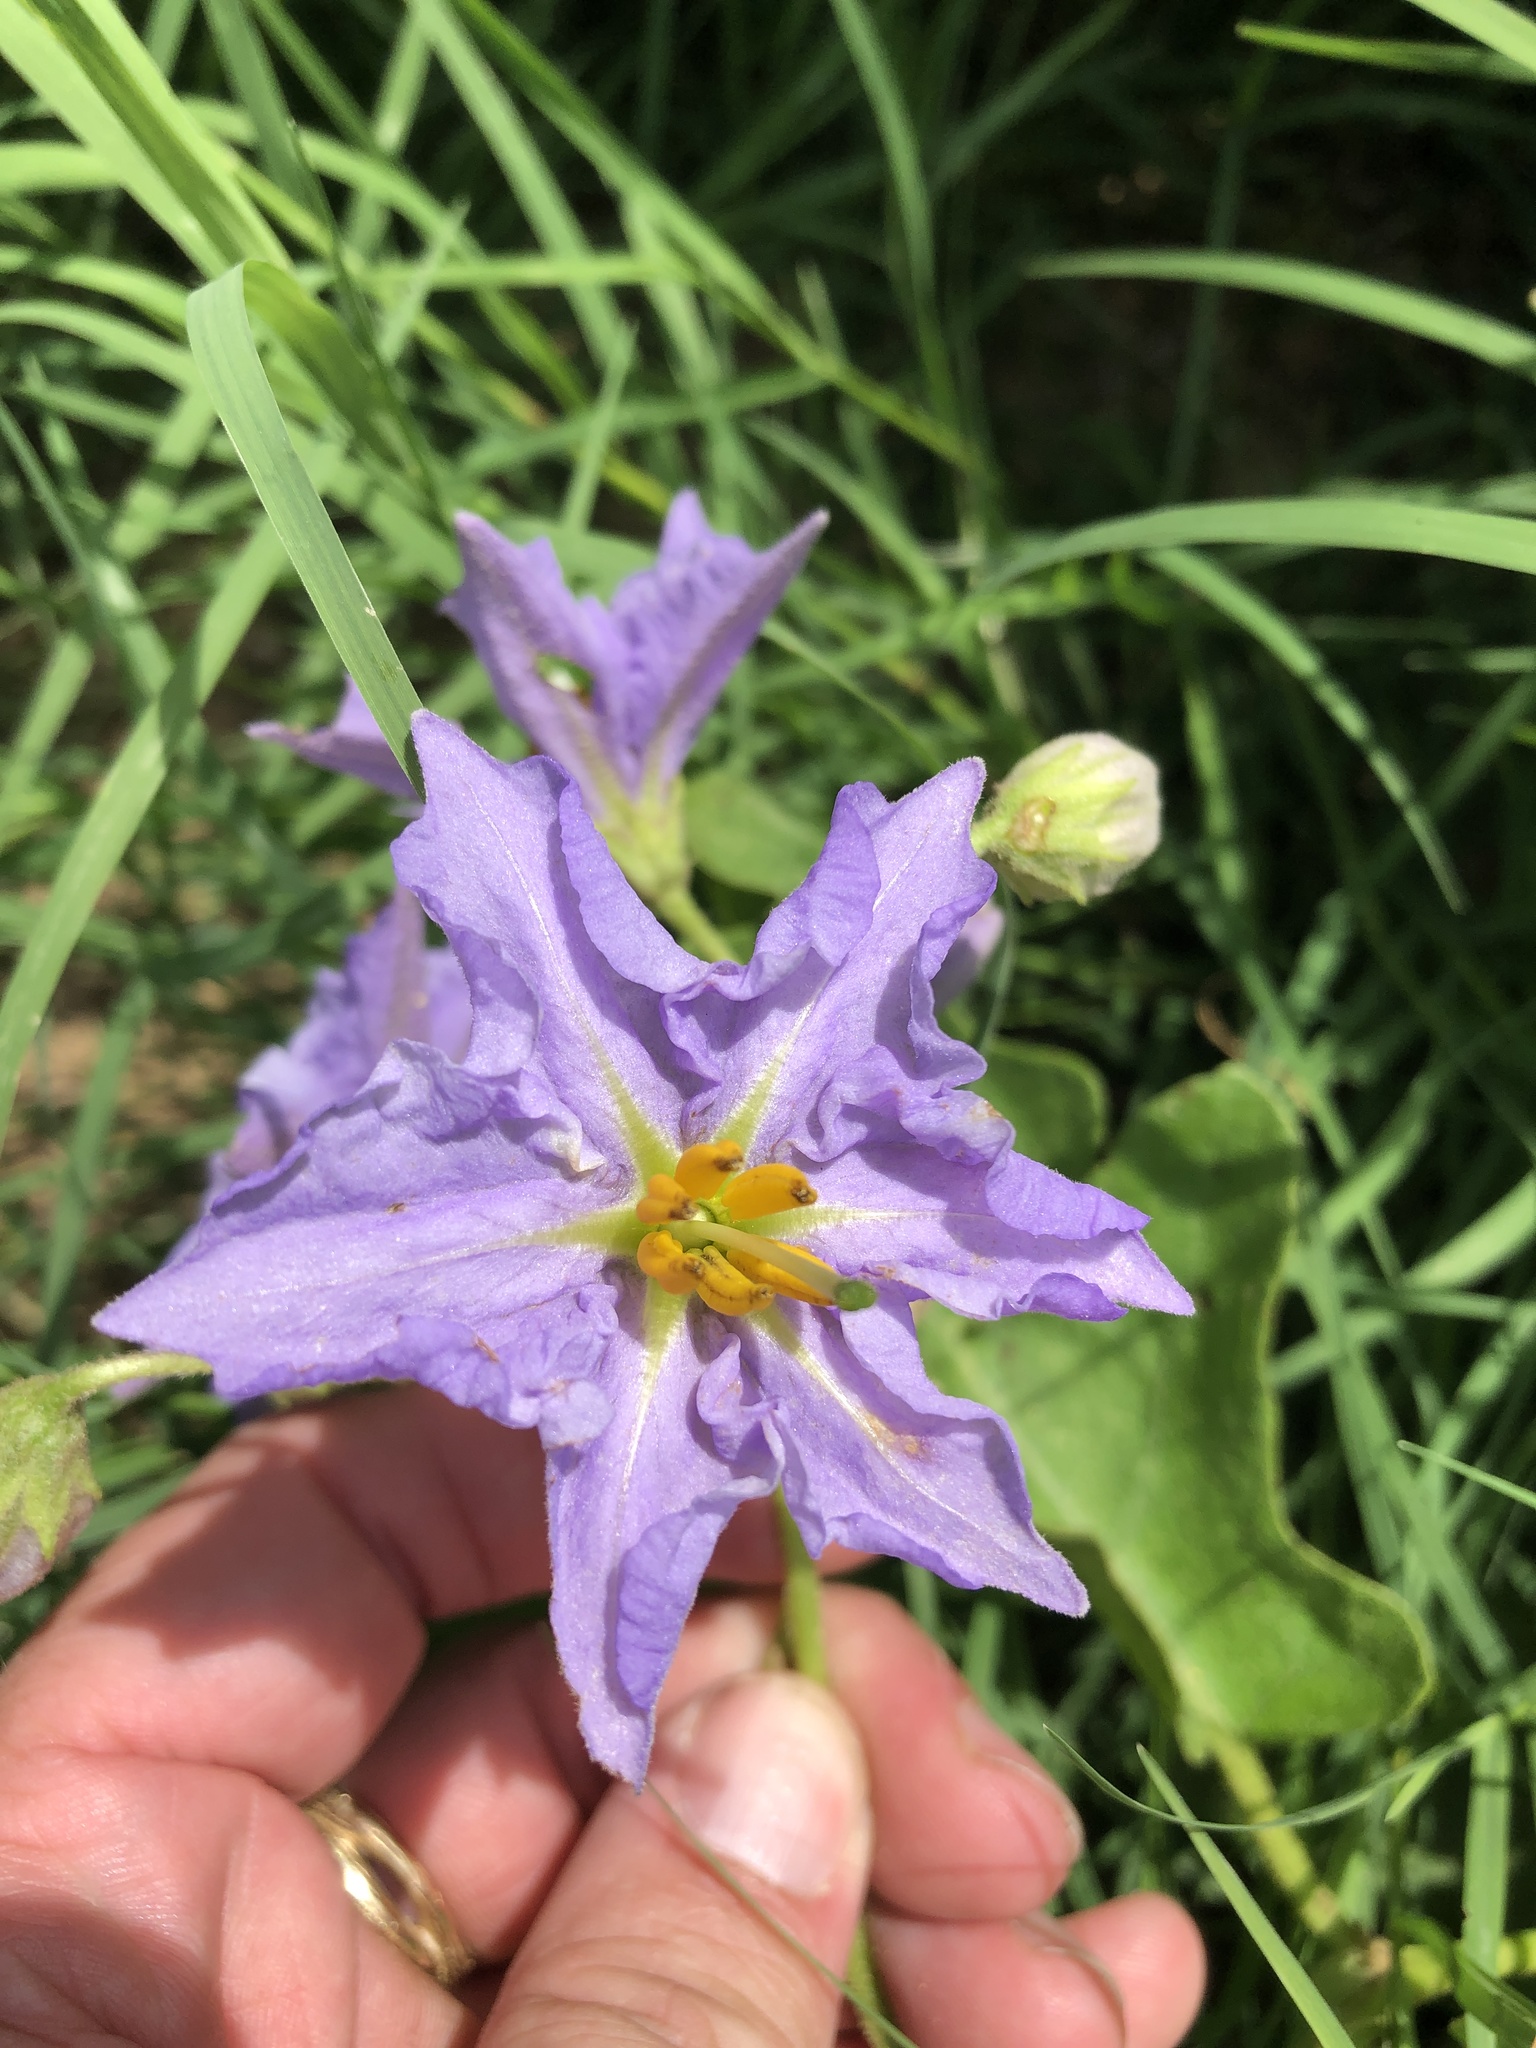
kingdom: Plantae
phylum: Tracheophyta
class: Magnoliopsida
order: Solanales
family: Solanaceae
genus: Solanum
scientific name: Solanum dimidiatum
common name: Carolina horse-nettle
